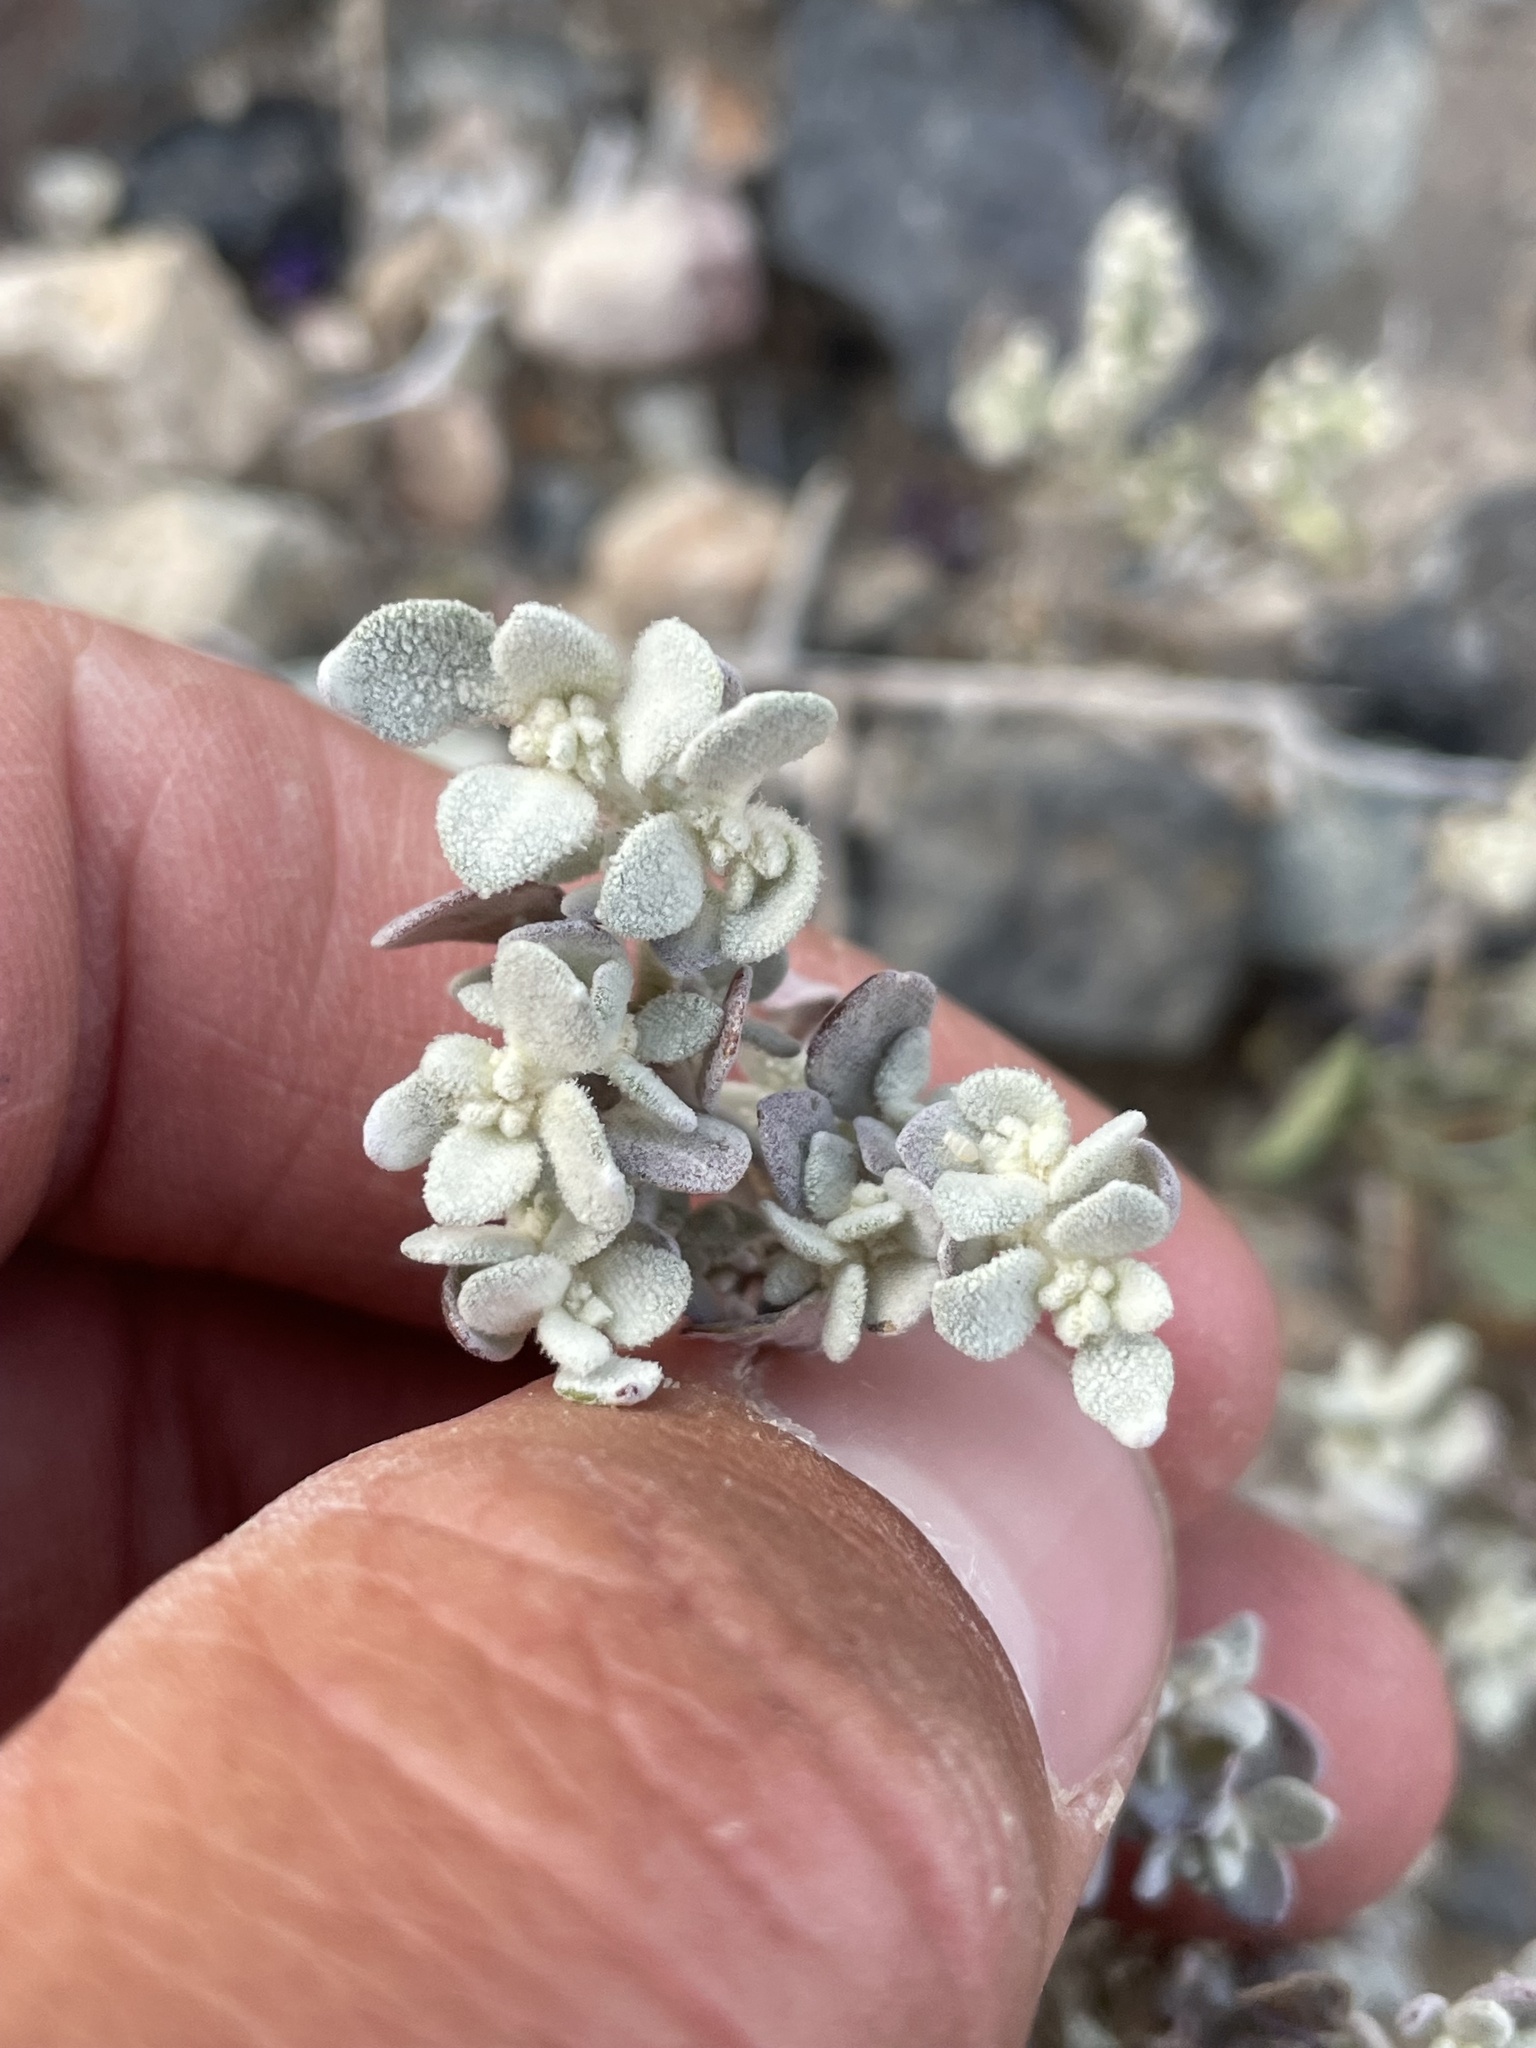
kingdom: Plantae
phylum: Tracheophyta
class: Magnoliopsida
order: Caryophyllales
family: Amaranthaceae
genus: Tidestromia
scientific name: Tidestromia suffruticosa
